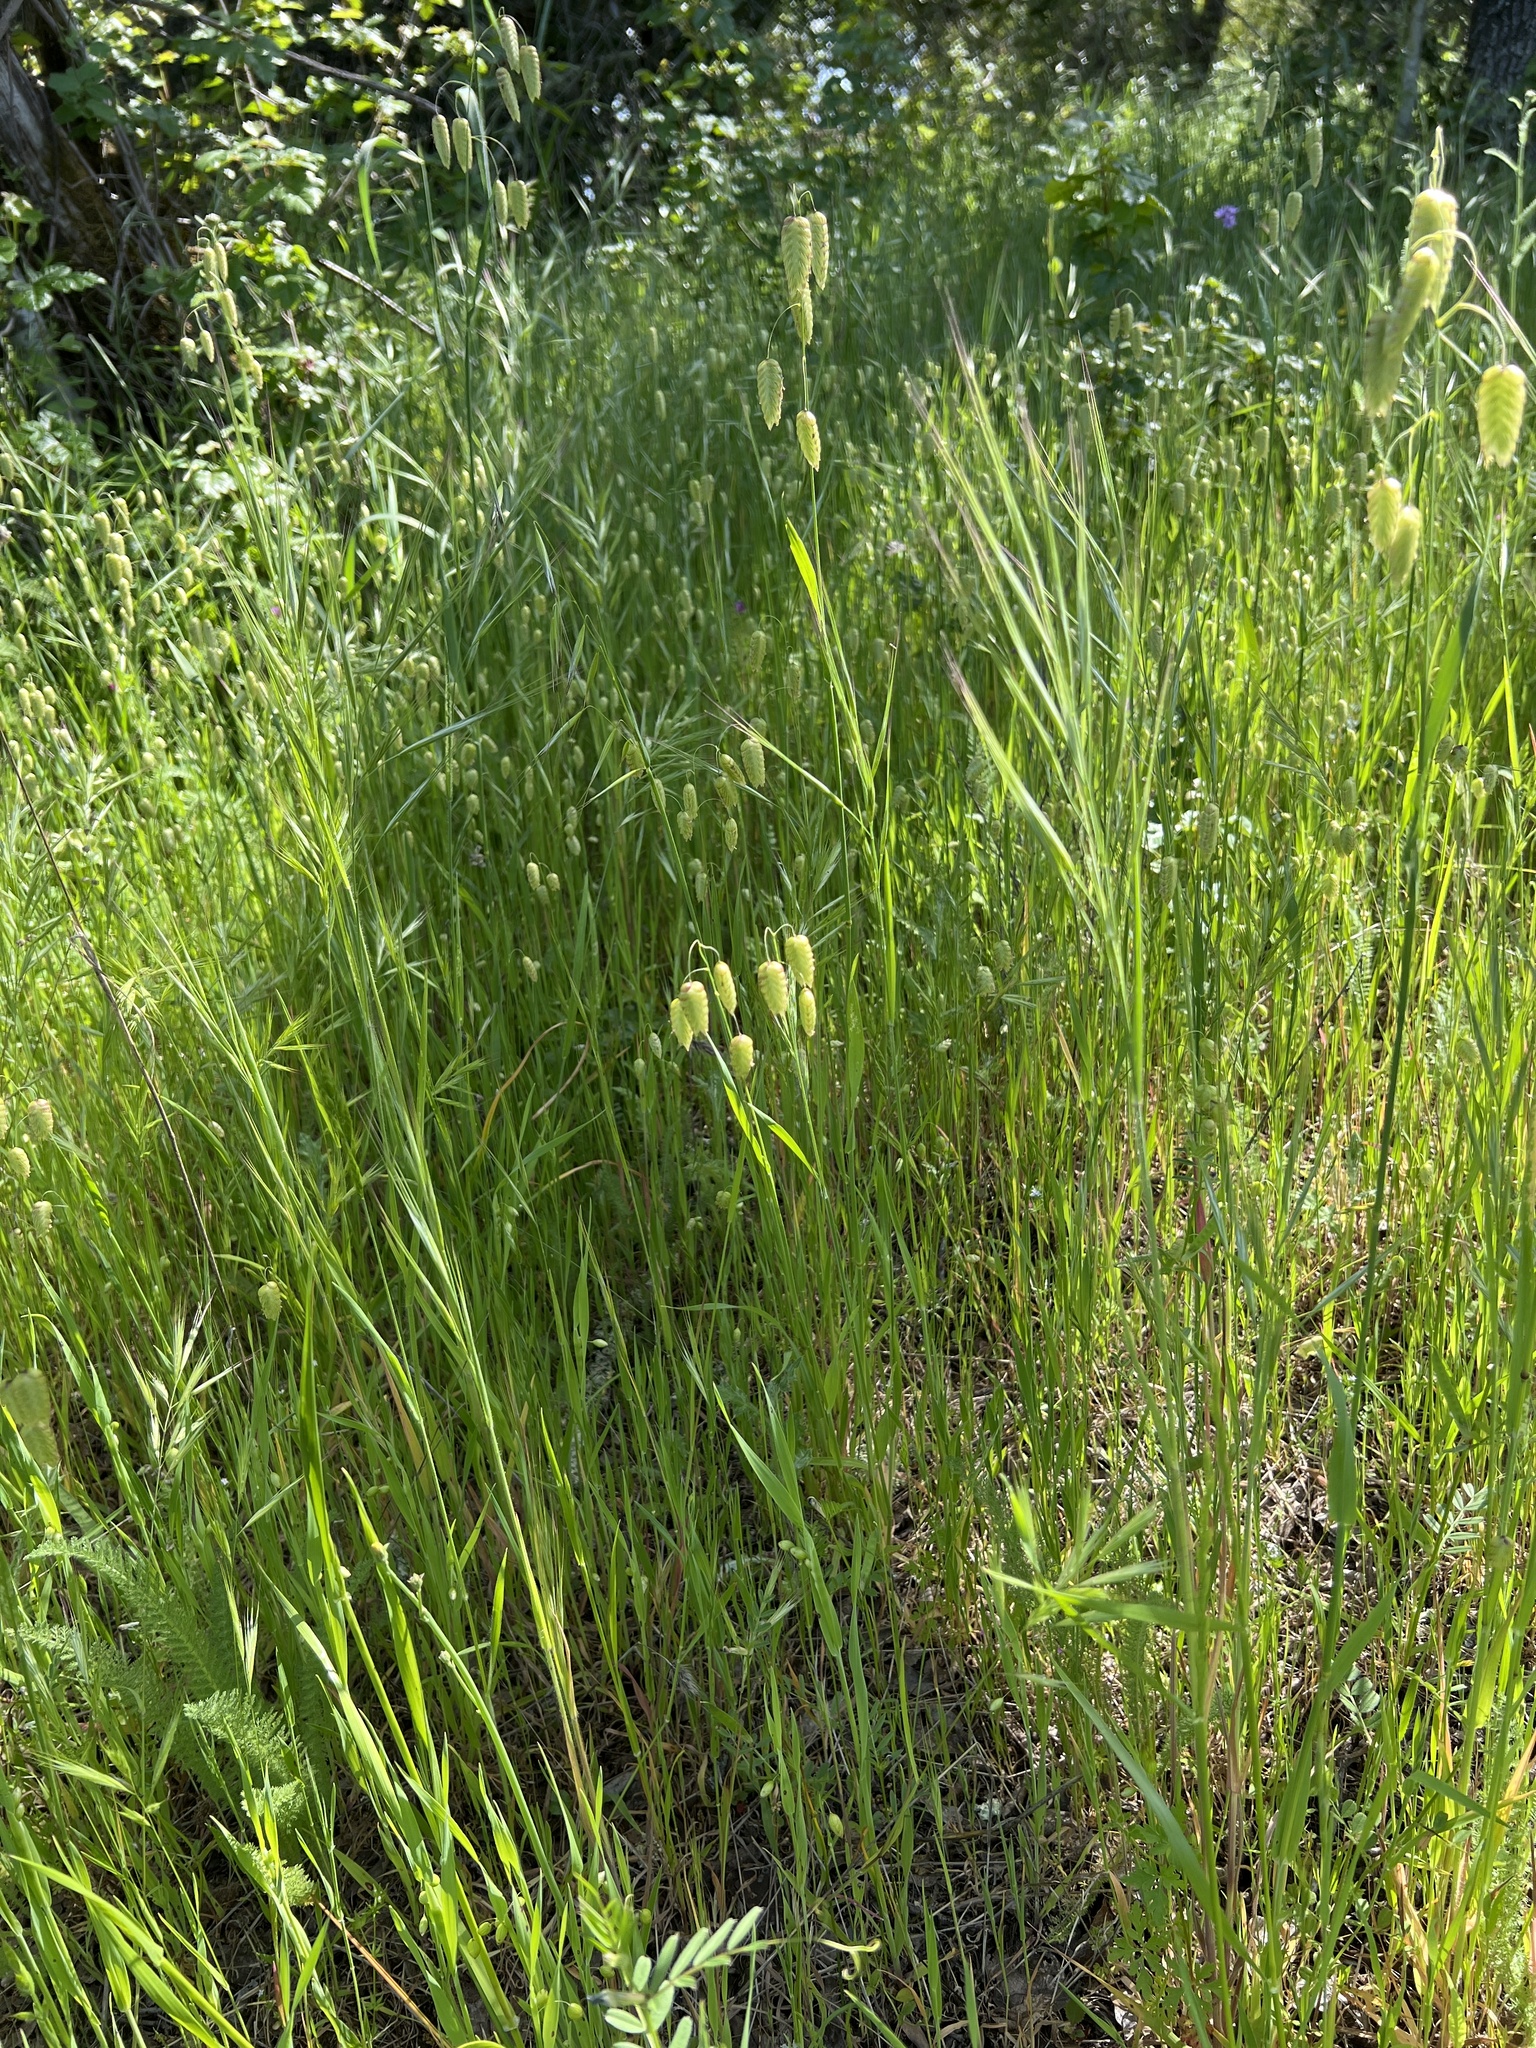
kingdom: Plantae
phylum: Tracheophyta
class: Liliopsida
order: Poales
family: Poaceae
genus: Briza
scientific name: Briza maxima
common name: Big quakinggrass
